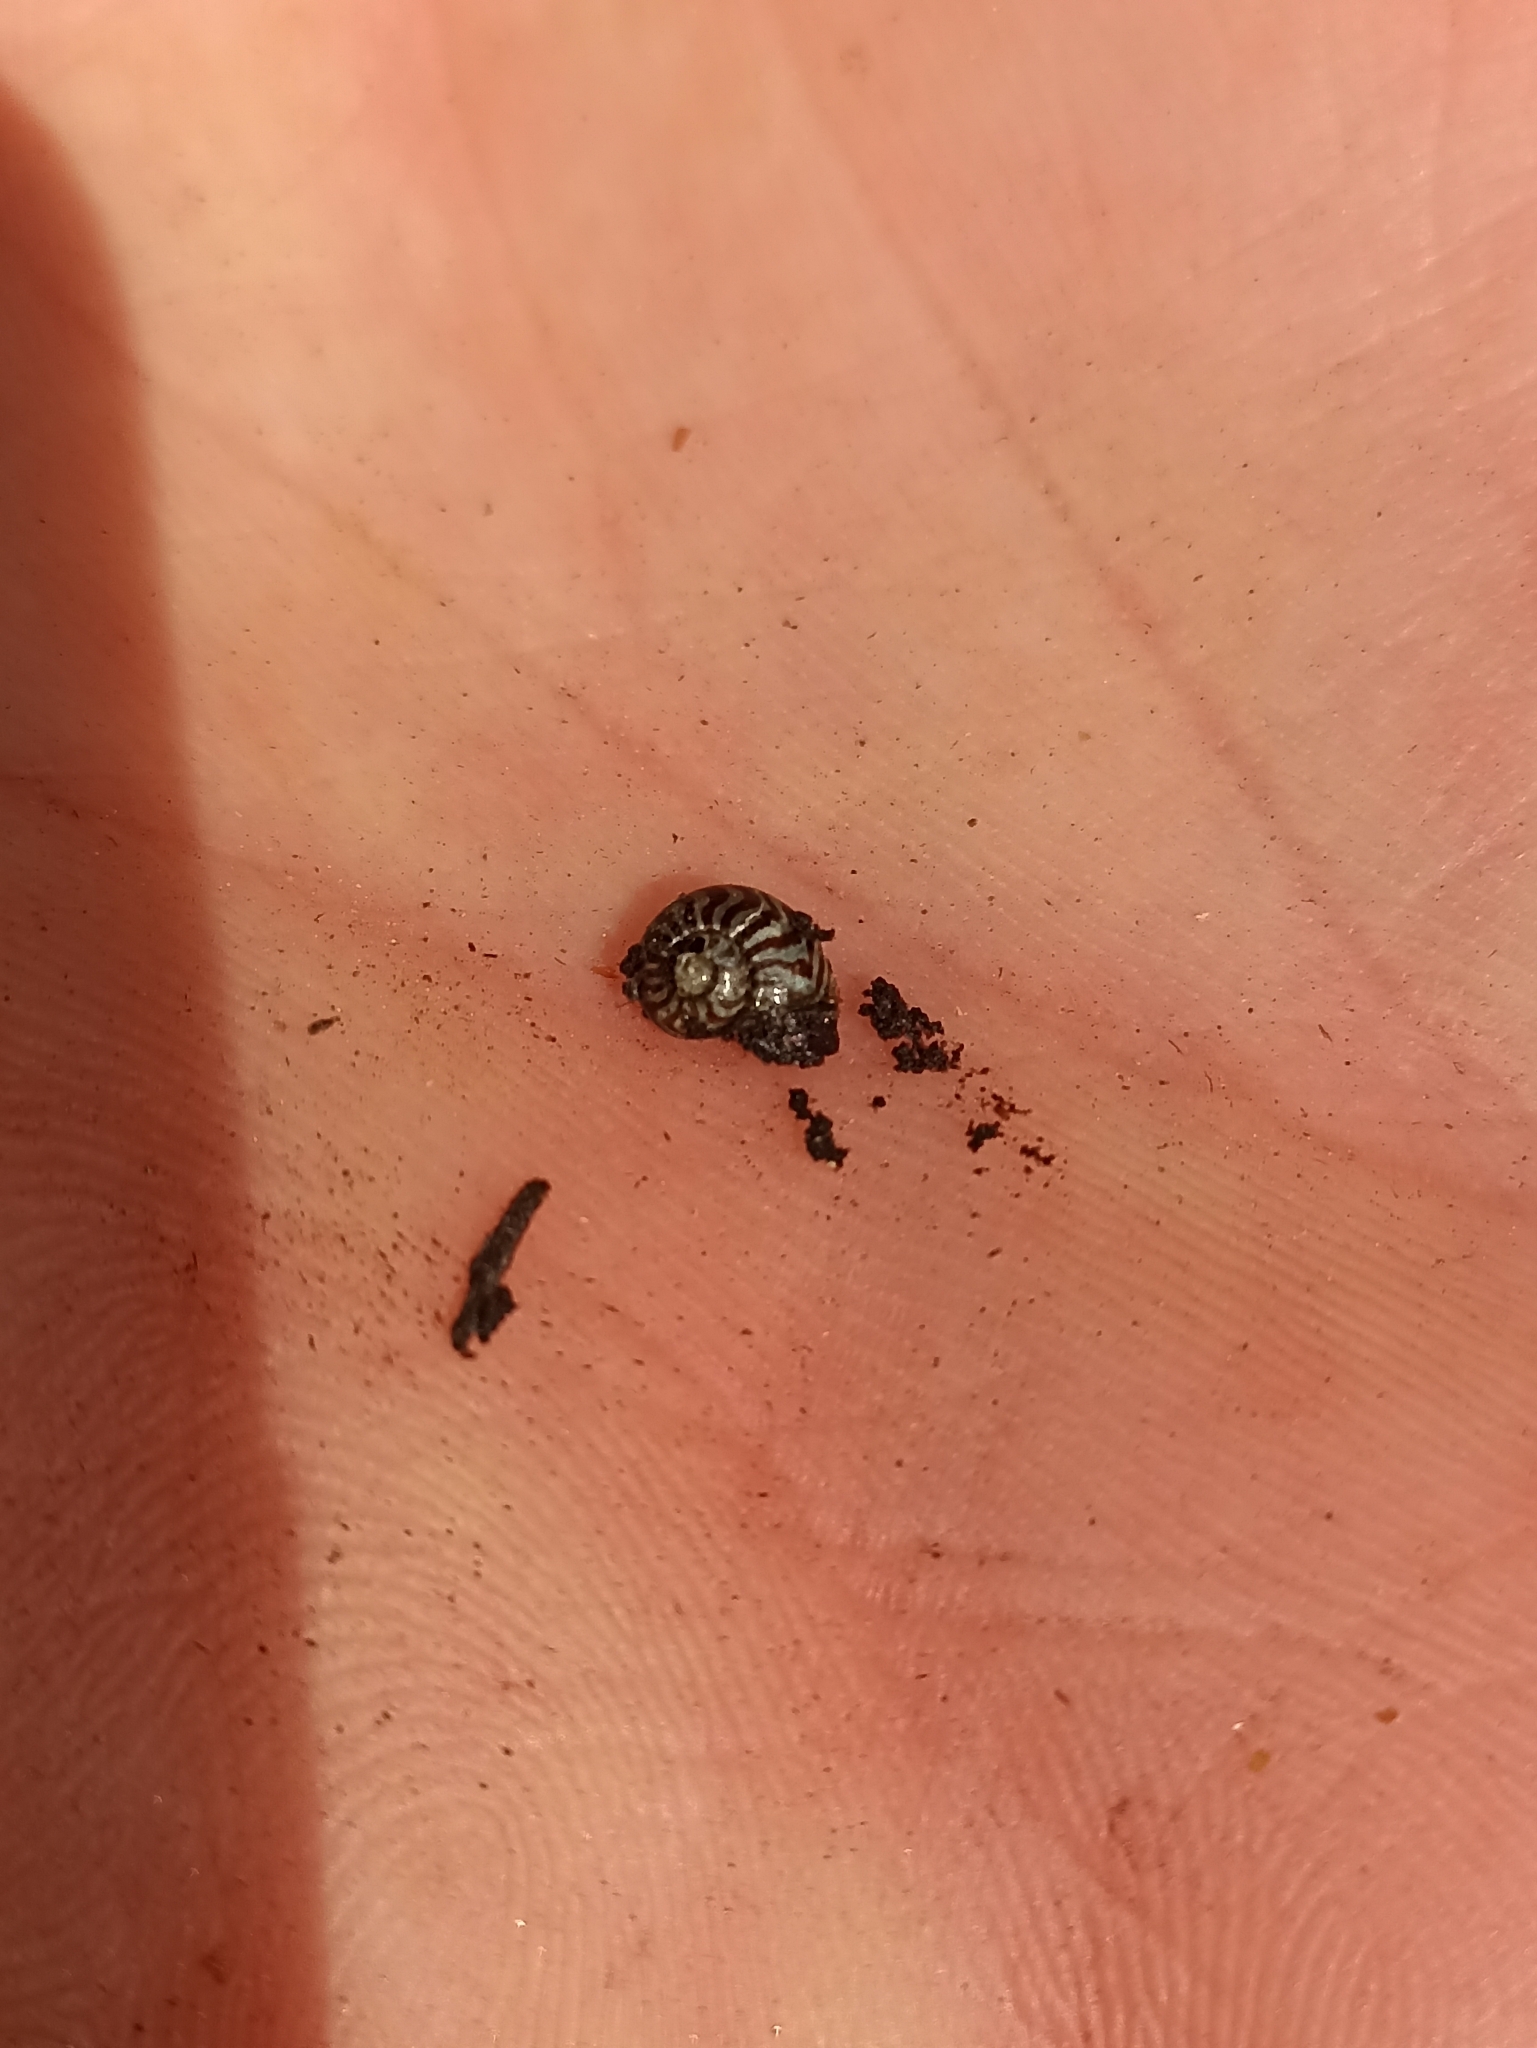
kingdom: Animalia
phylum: Mollusca
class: Gastropoda
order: Stylommatophora
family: Charopidae
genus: Flammulina
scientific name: Flammulina zebra
